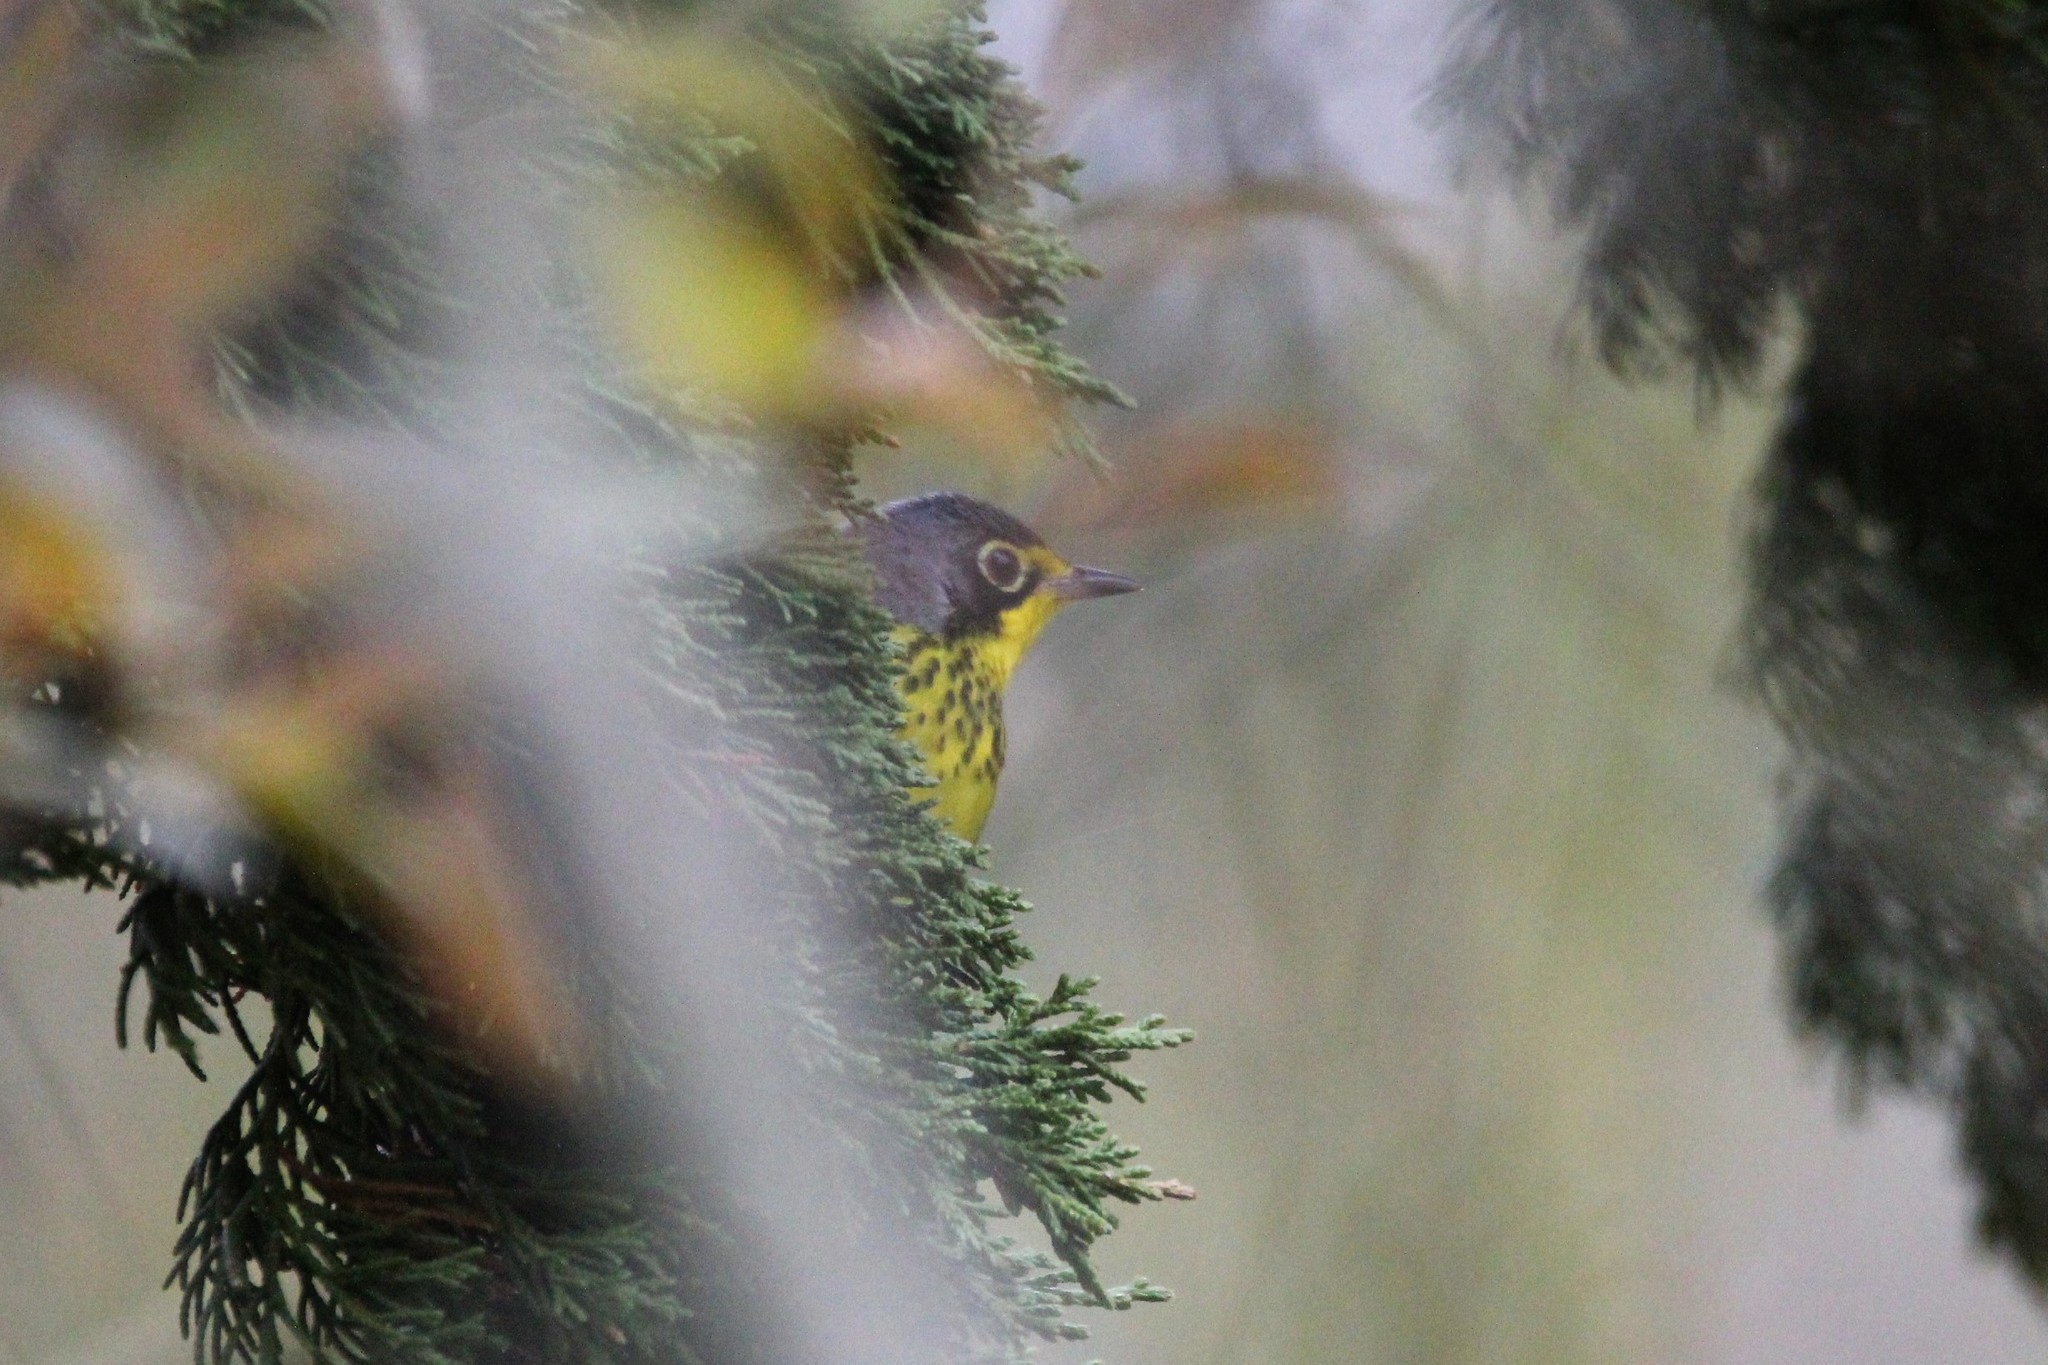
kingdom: Animalia
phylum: Chordata
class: Aves
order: Passeriformes
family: Parulidae
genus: Cardellina
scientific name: Cardellina canadensis
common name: Canada warbler
